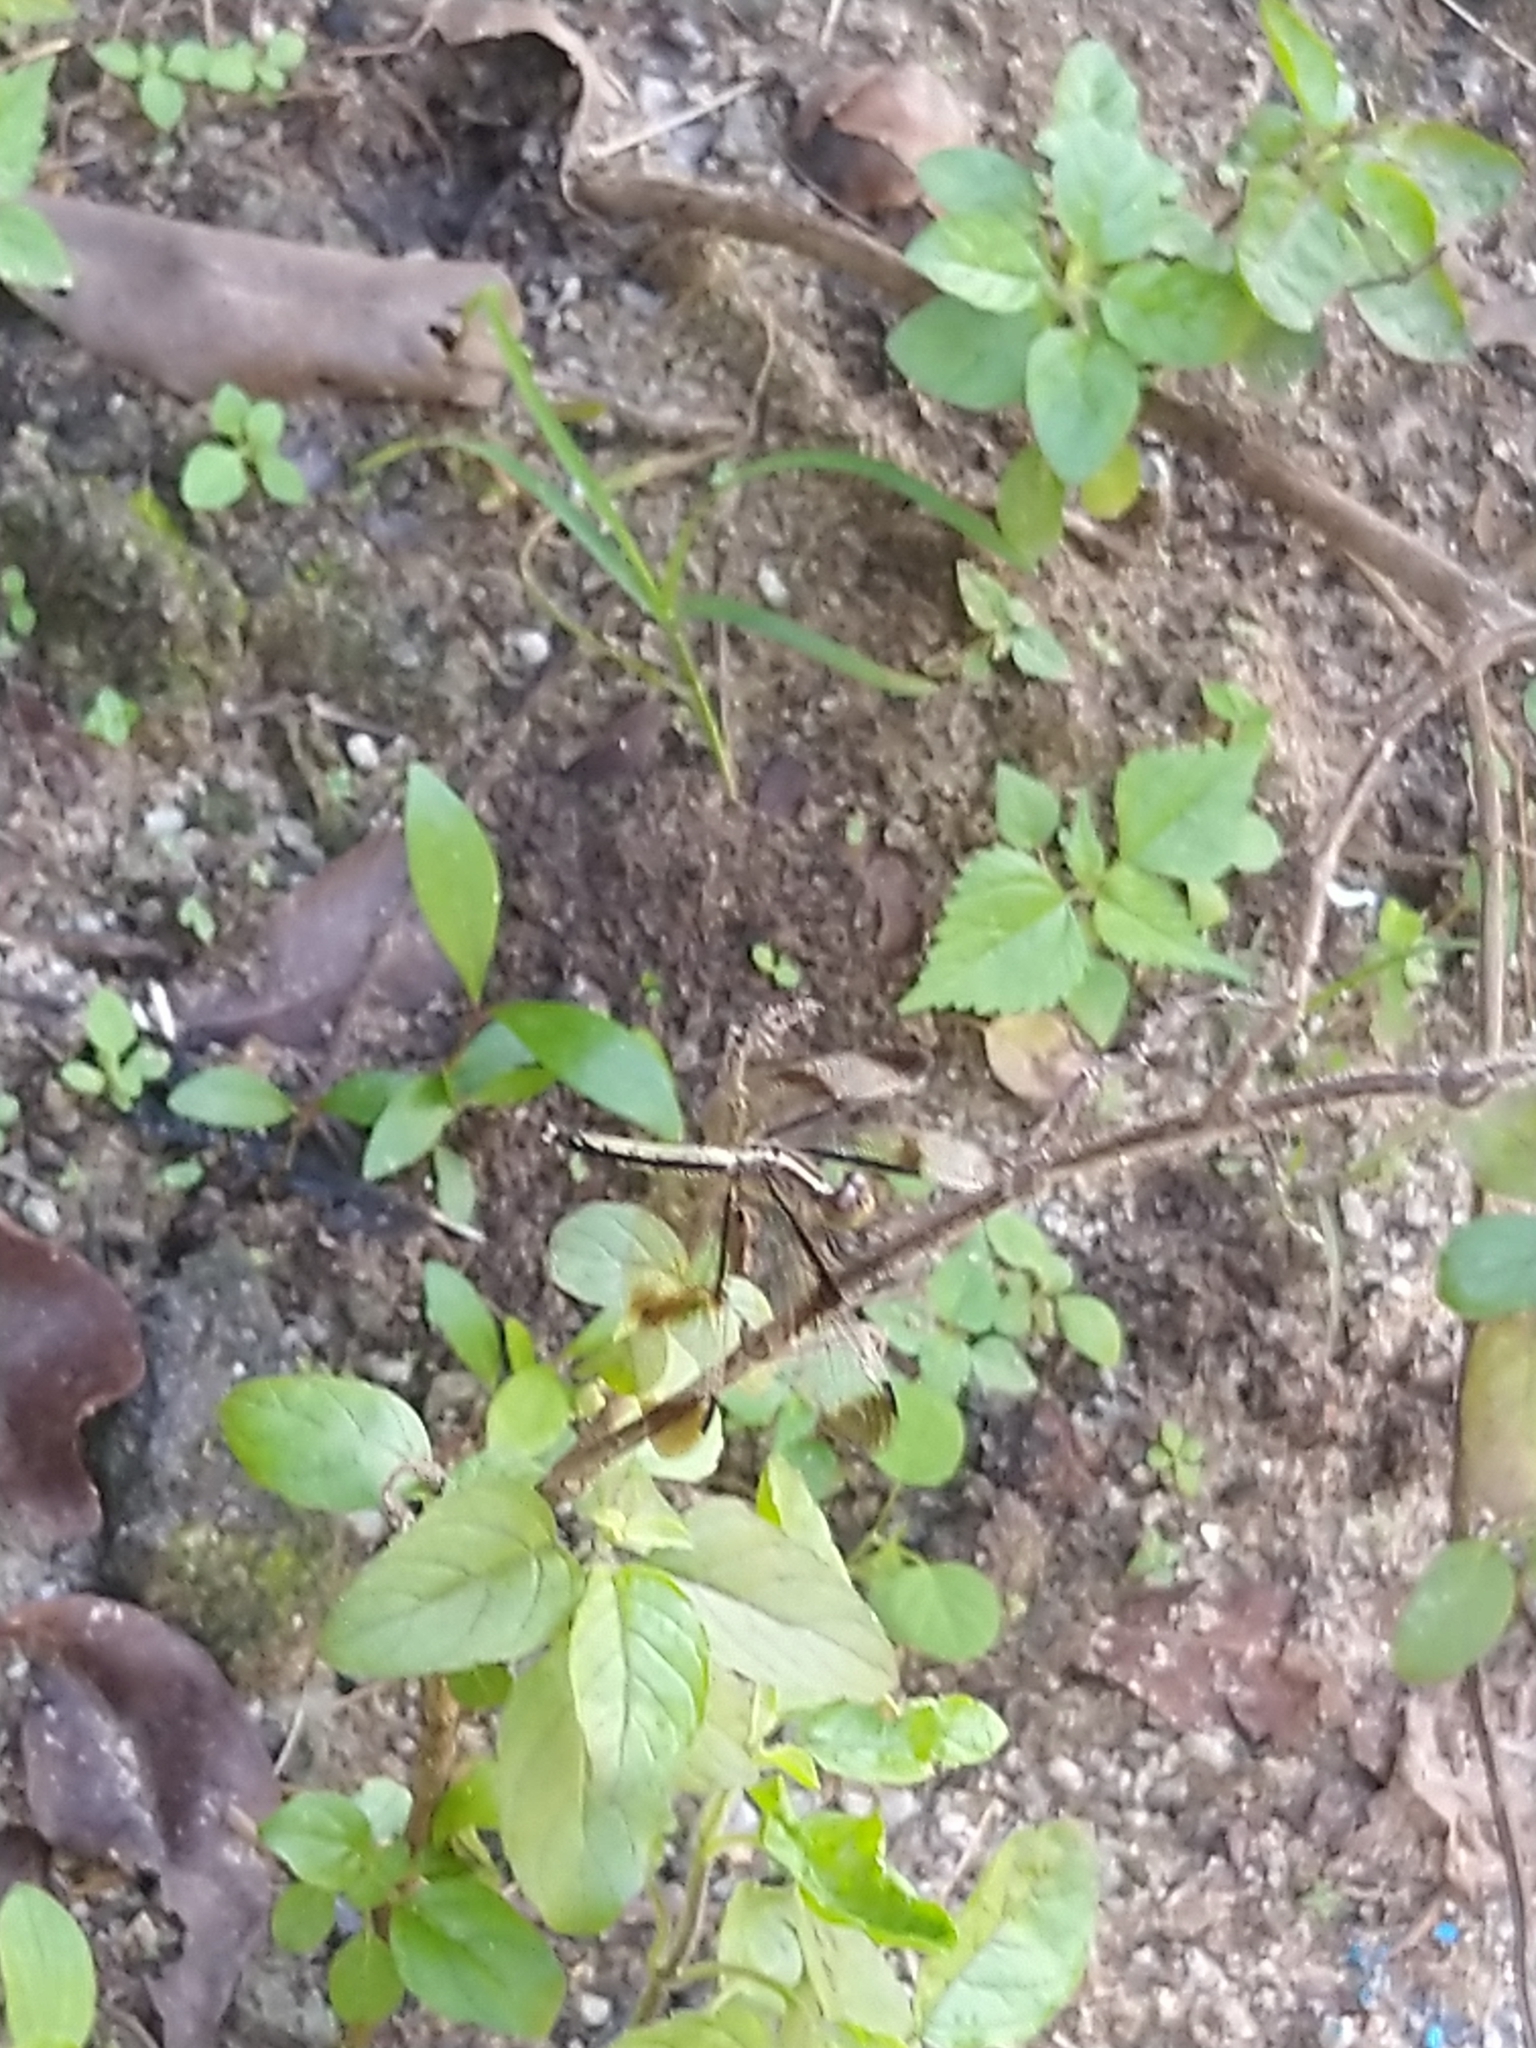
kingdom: Animalia
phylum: Arthropoda
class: Insecta
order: Odonata
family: Libellulidae
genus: Neurothemis
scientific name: Neurothemis tullia
